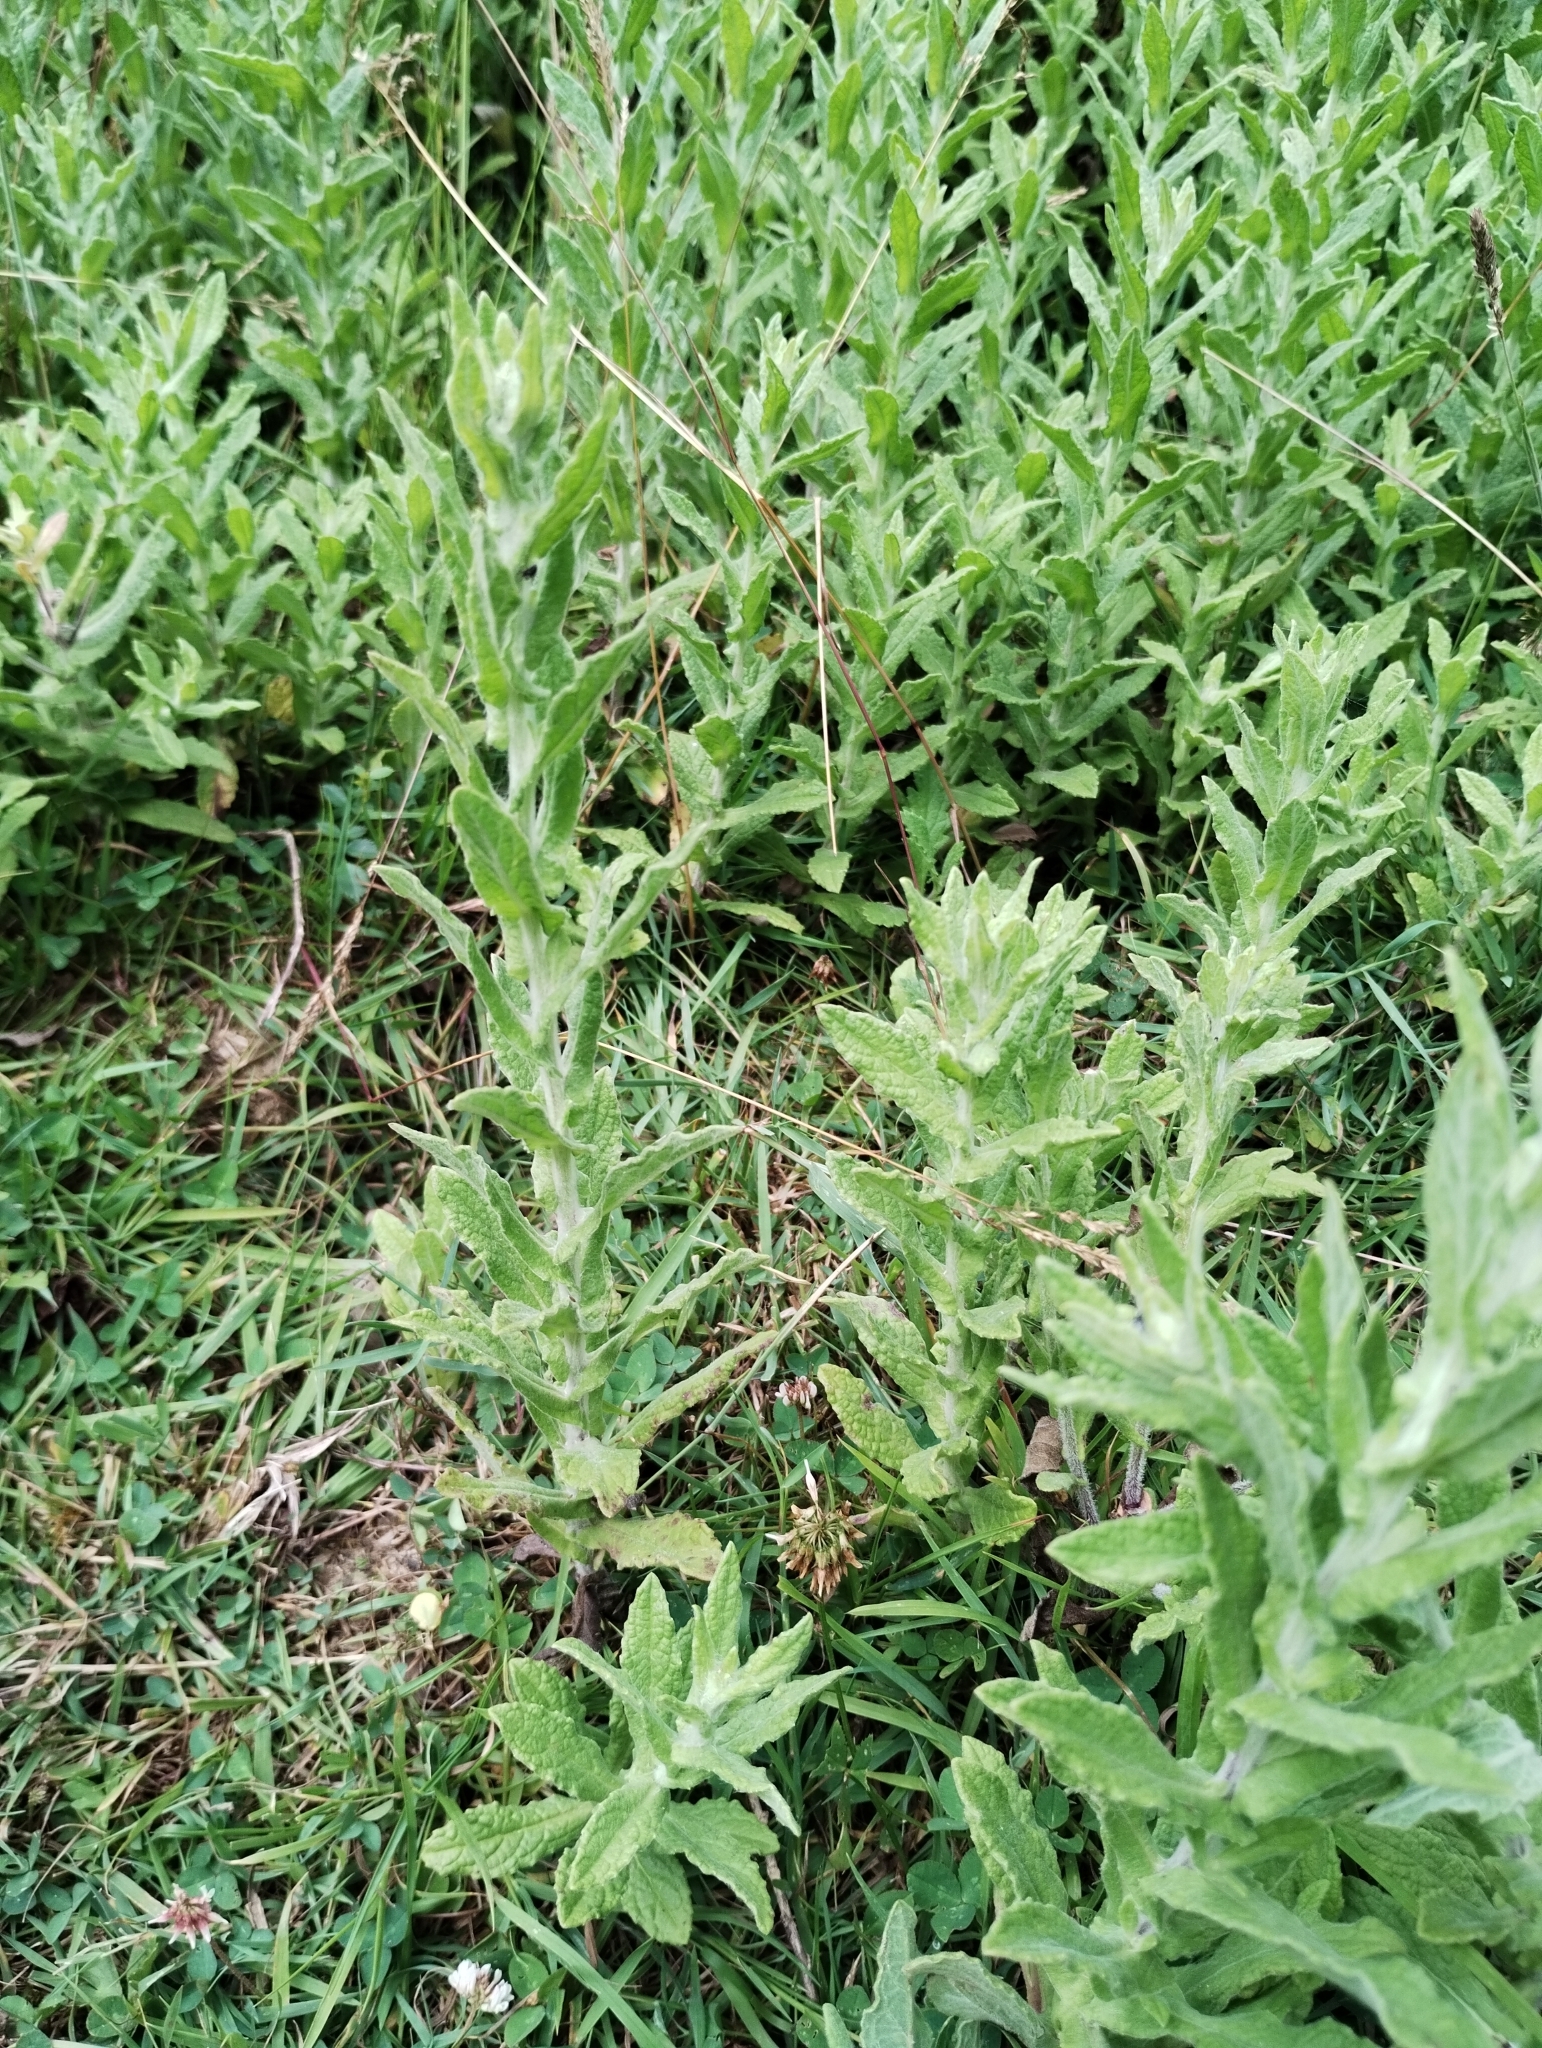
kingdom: Plantae
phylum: Tracheophyta
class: Magnoliopsida
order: Asterales
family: Asteraceae
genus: Pulicaria
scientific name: Pulicaria dysenterica
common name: Common fleabane
